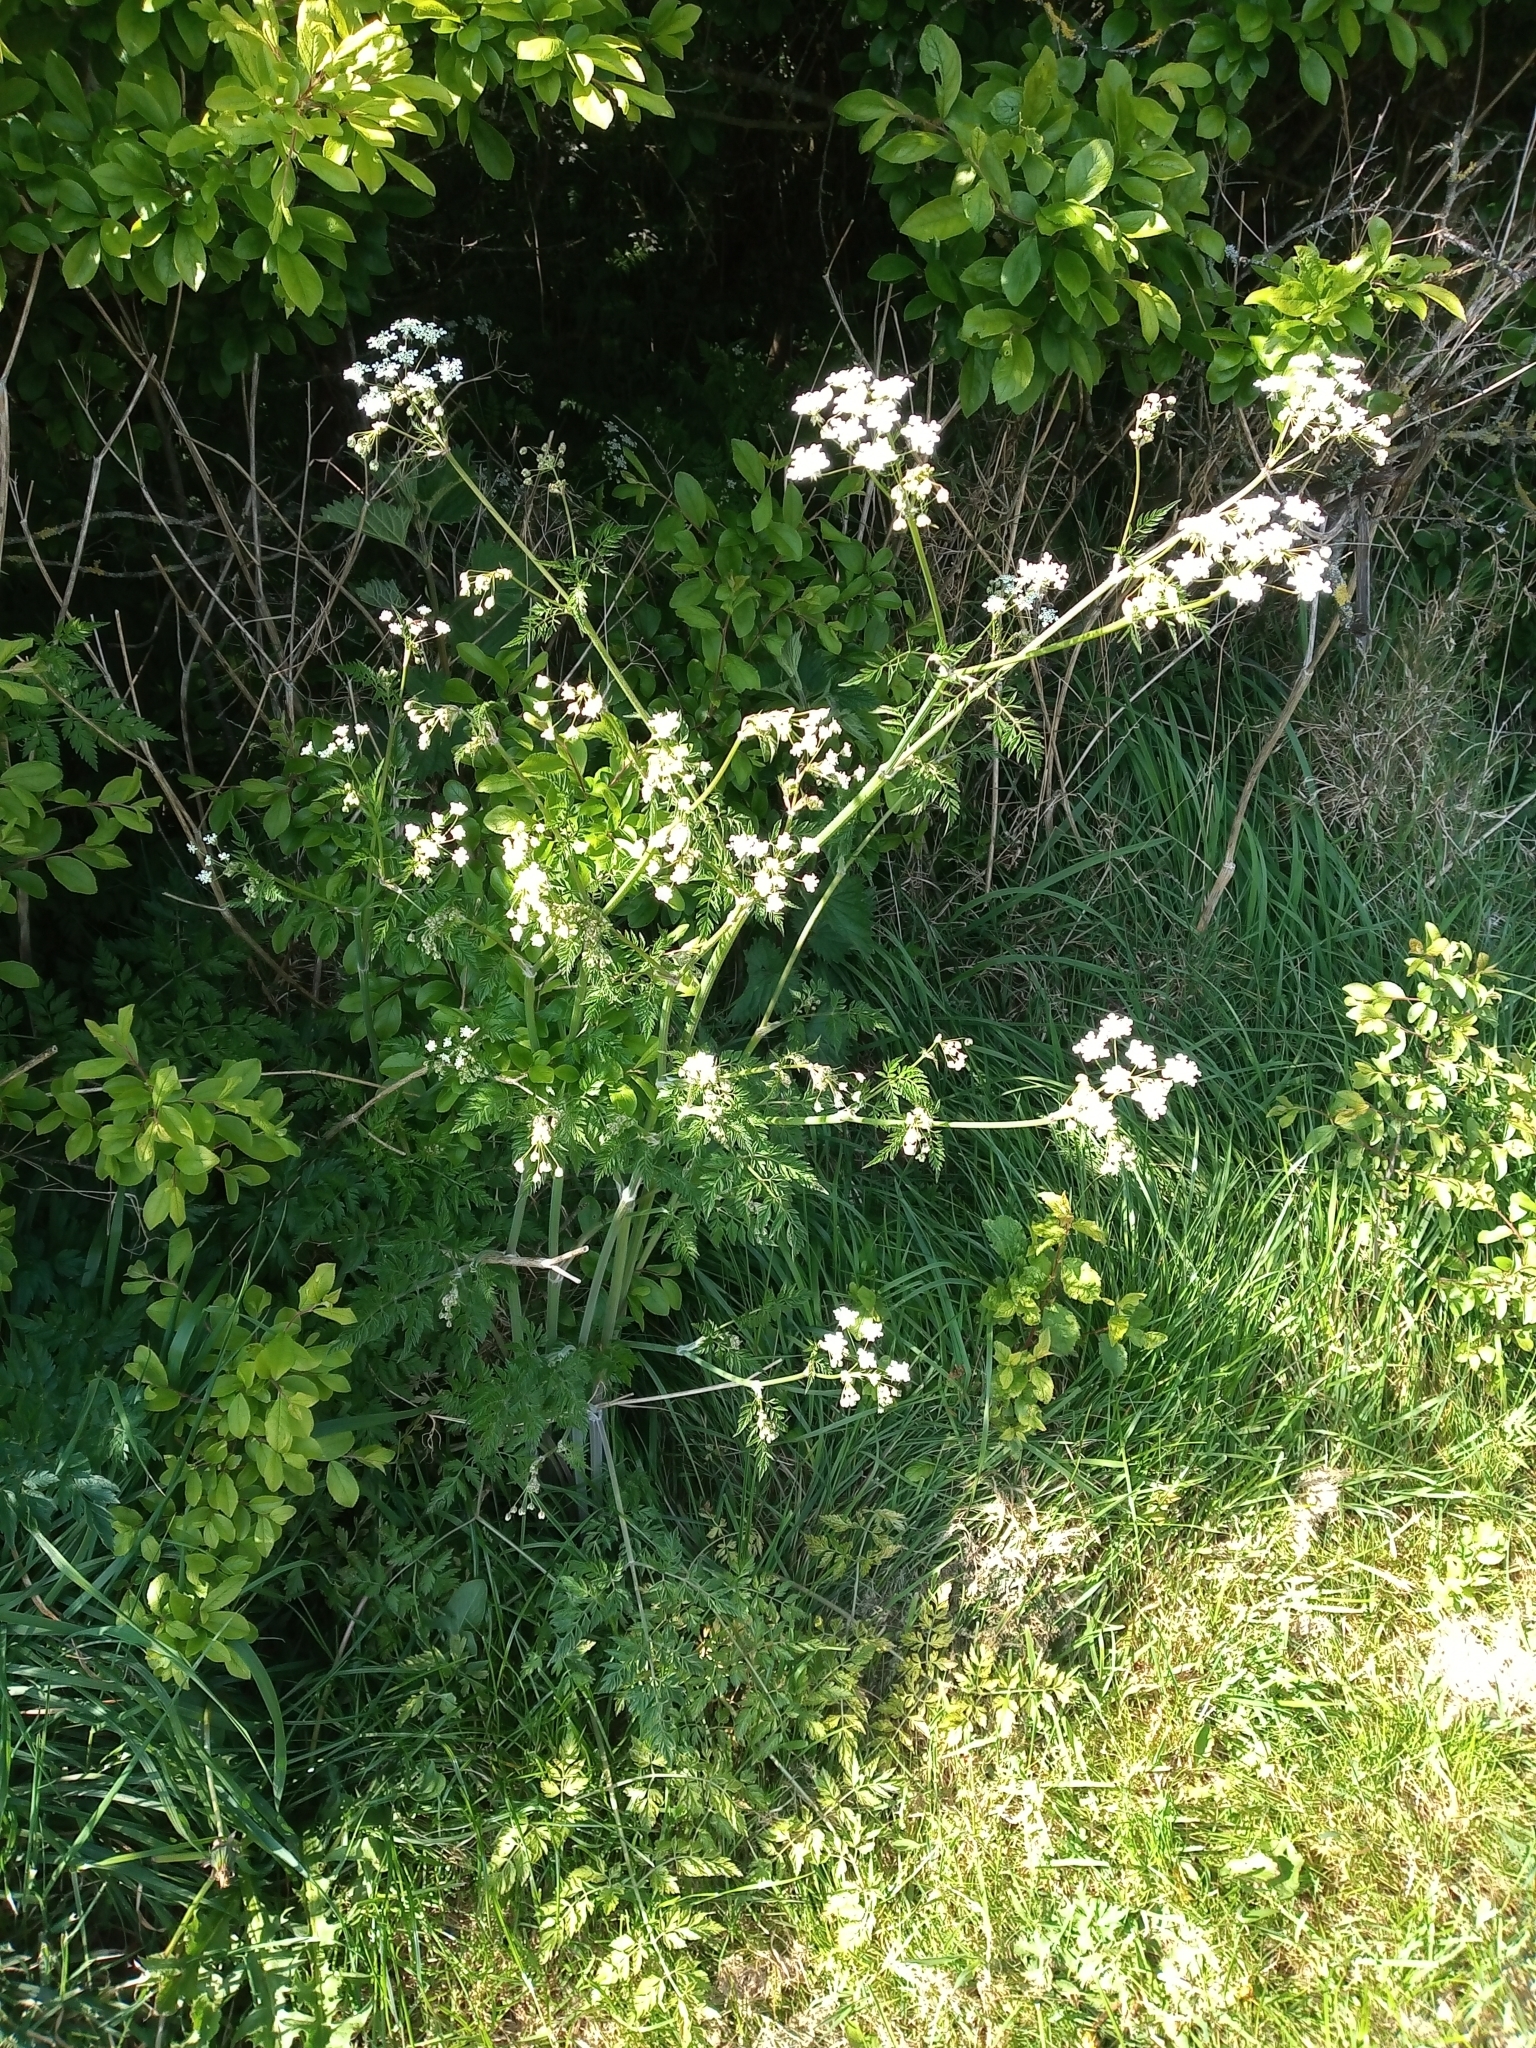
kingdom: Plantae
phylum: Tracheophyta
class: Magnoliopsida
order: Apiales
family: Apiaceae
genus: Anthriscus
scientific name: Anthriscus sylvestris
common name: Cow parsley
